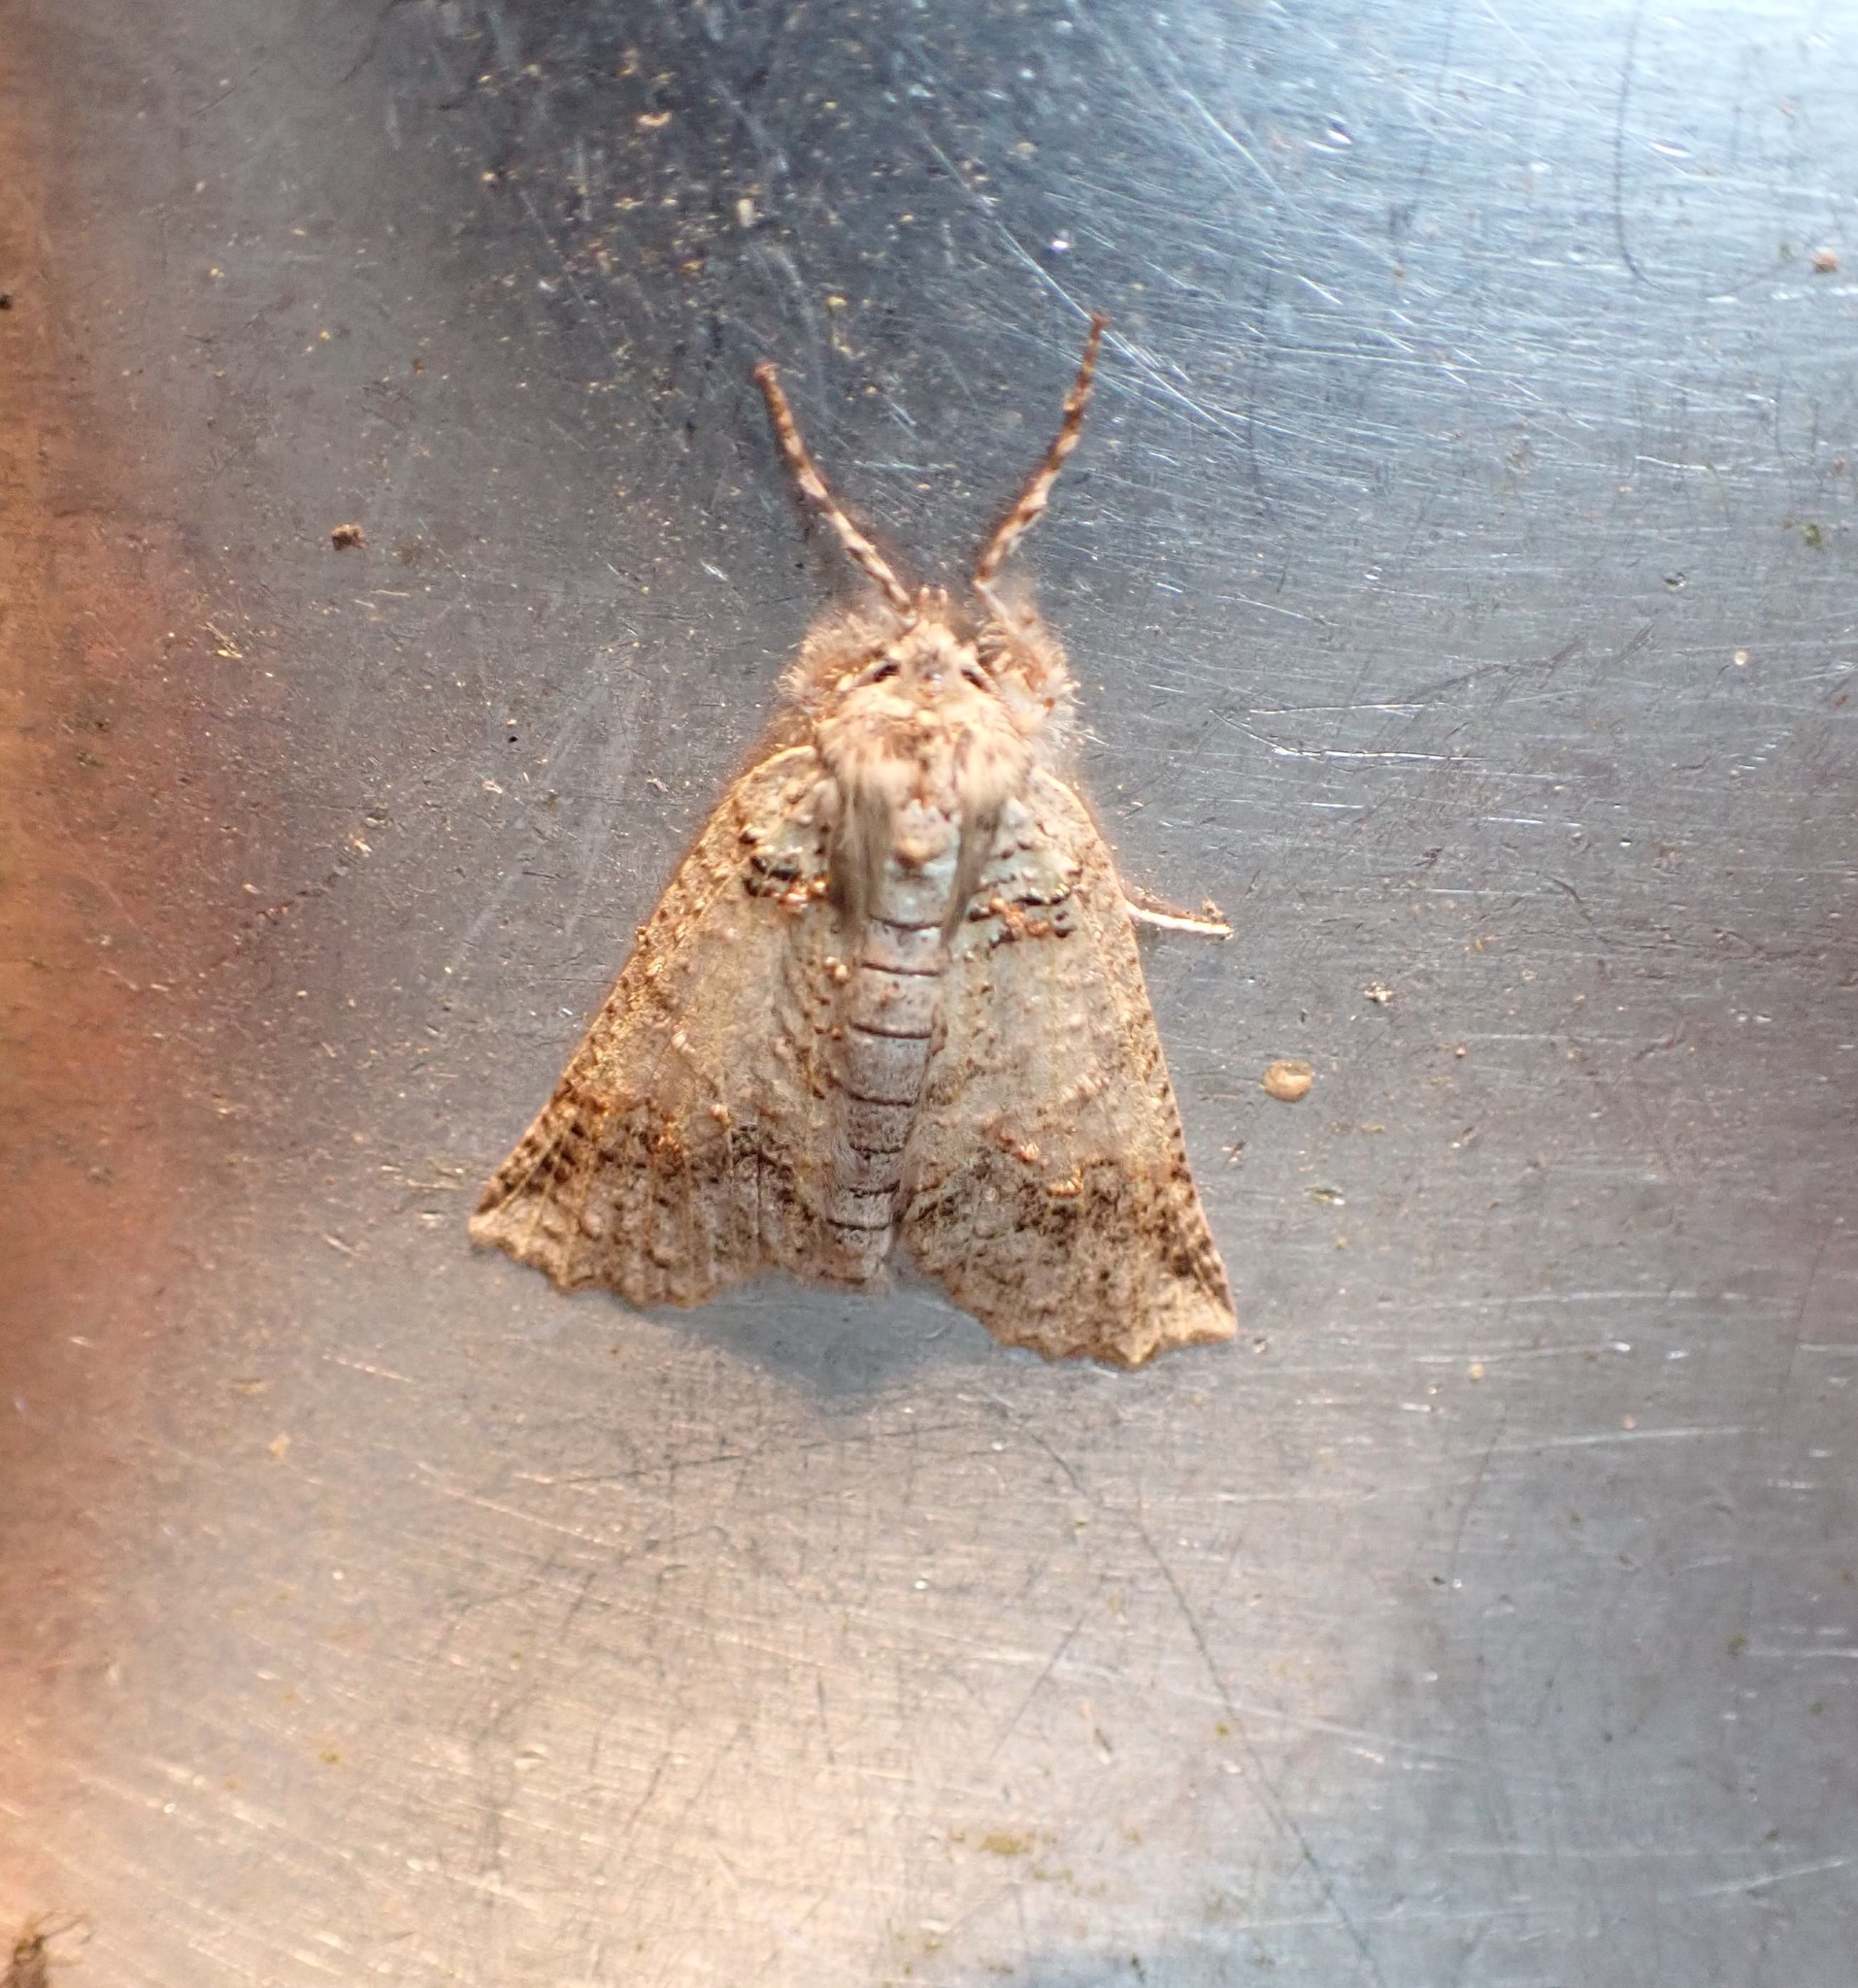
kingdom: Animalia
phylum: Arthropoda
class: Insecta
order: Lepidoptera
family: Geometridae
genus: Declana
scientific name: Declana floccosa
